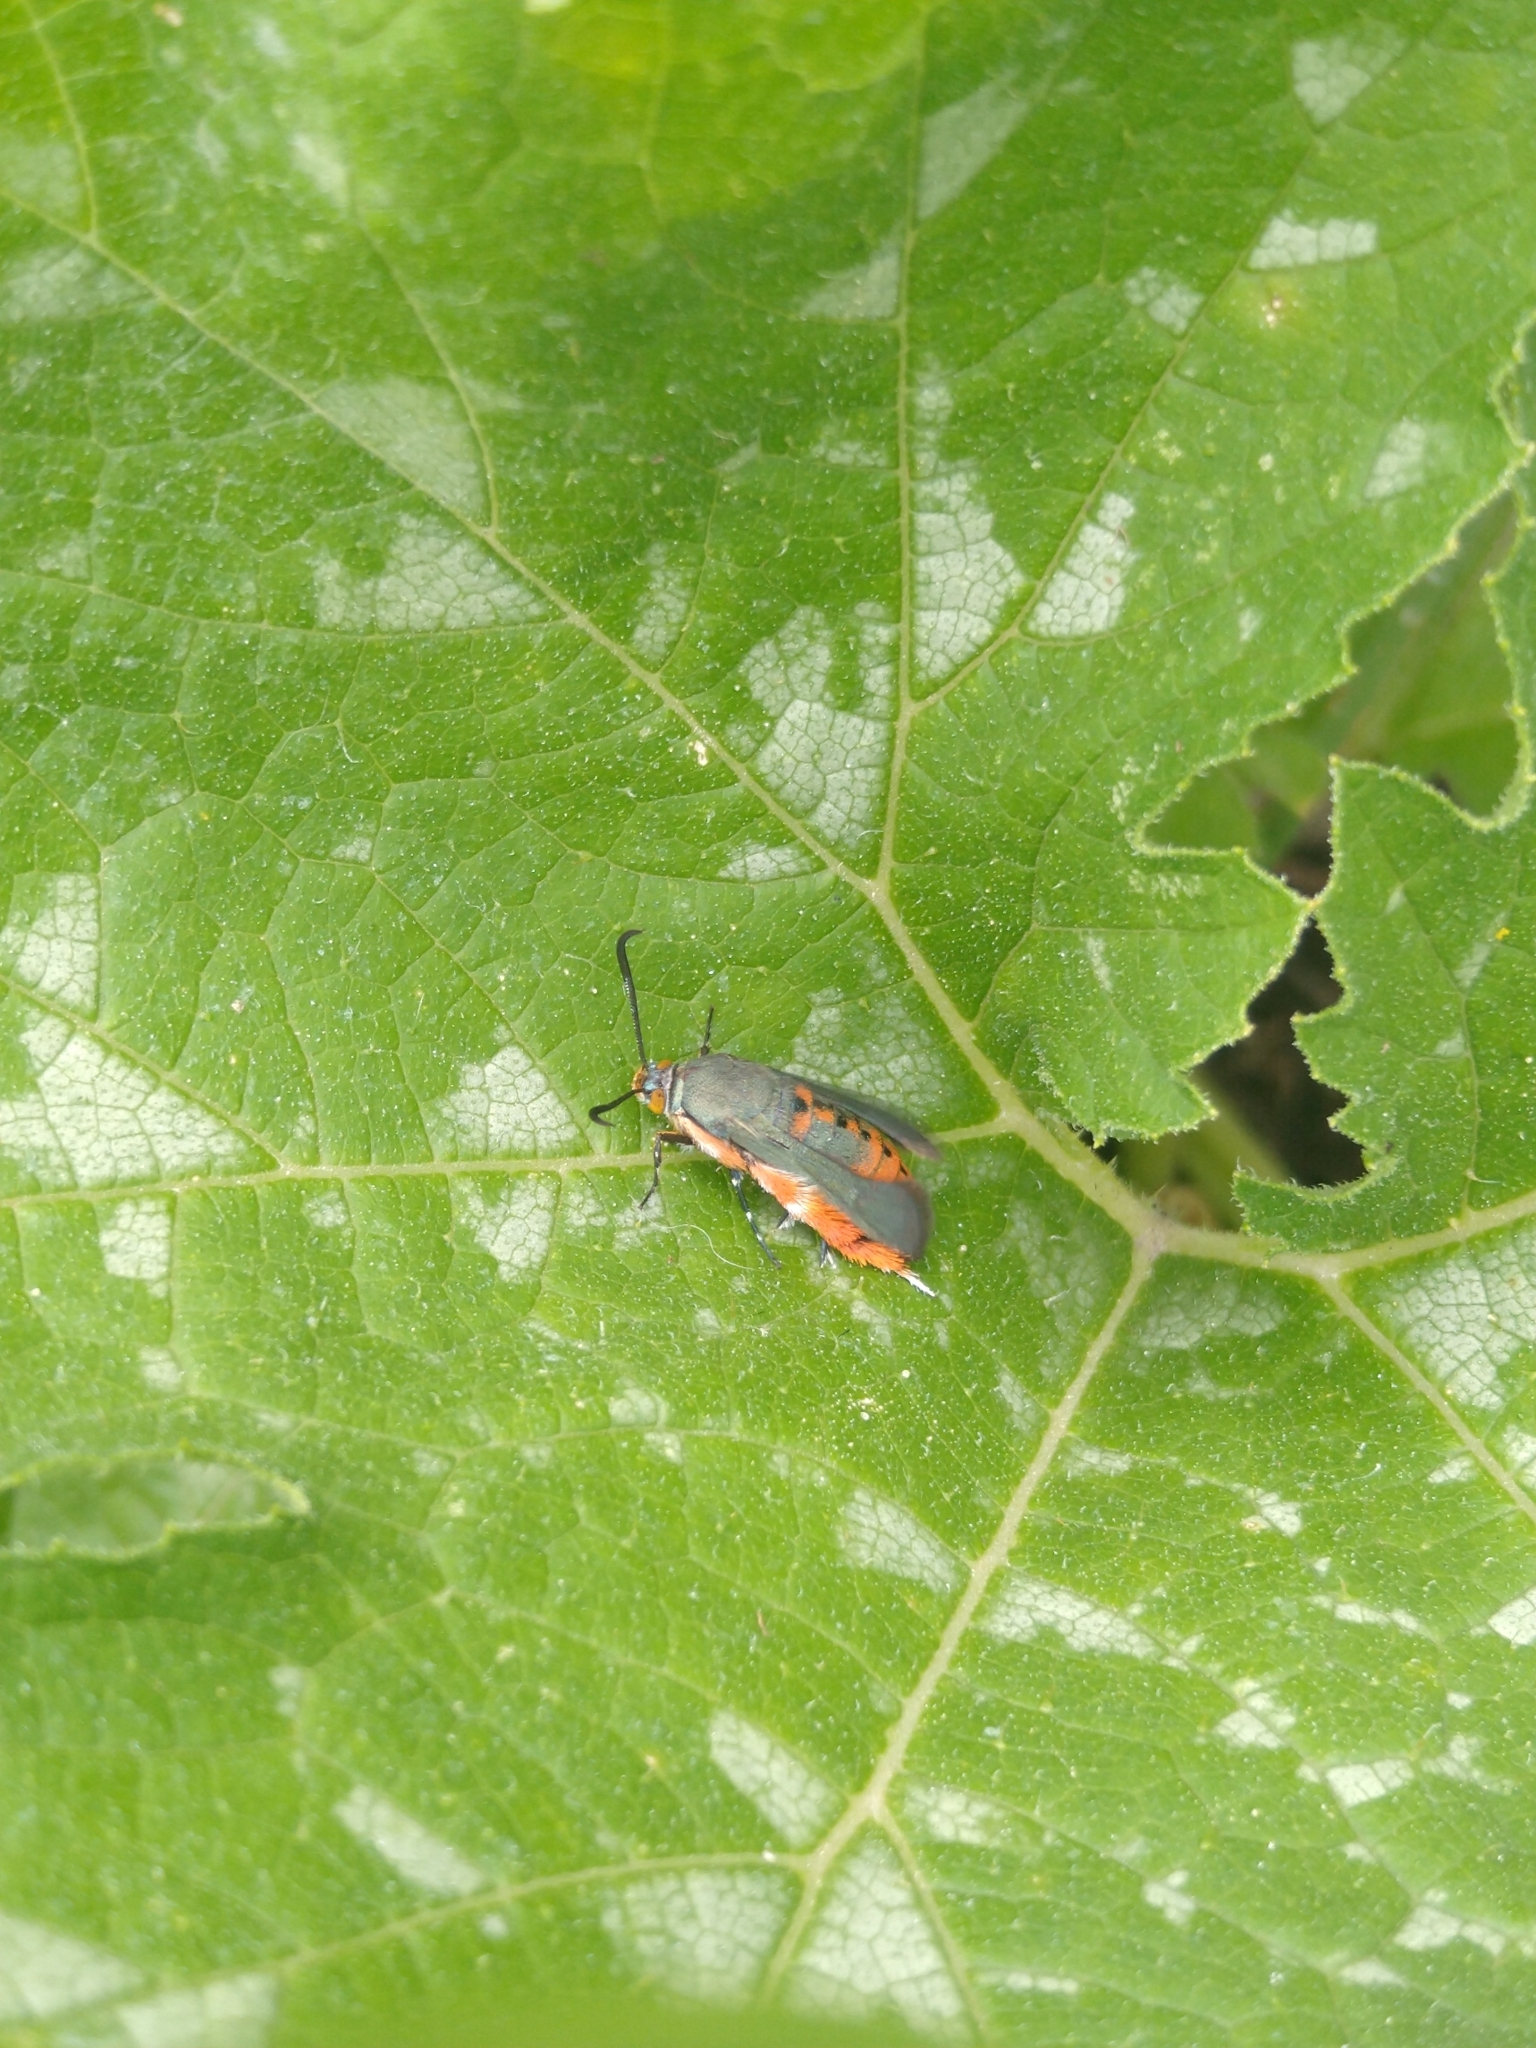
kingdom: Animalia
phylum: Arthropoda
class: Insecta
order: Lepidoptera
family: Sesiidae
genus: Eichlinia
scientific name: Eichlinia calabaza
